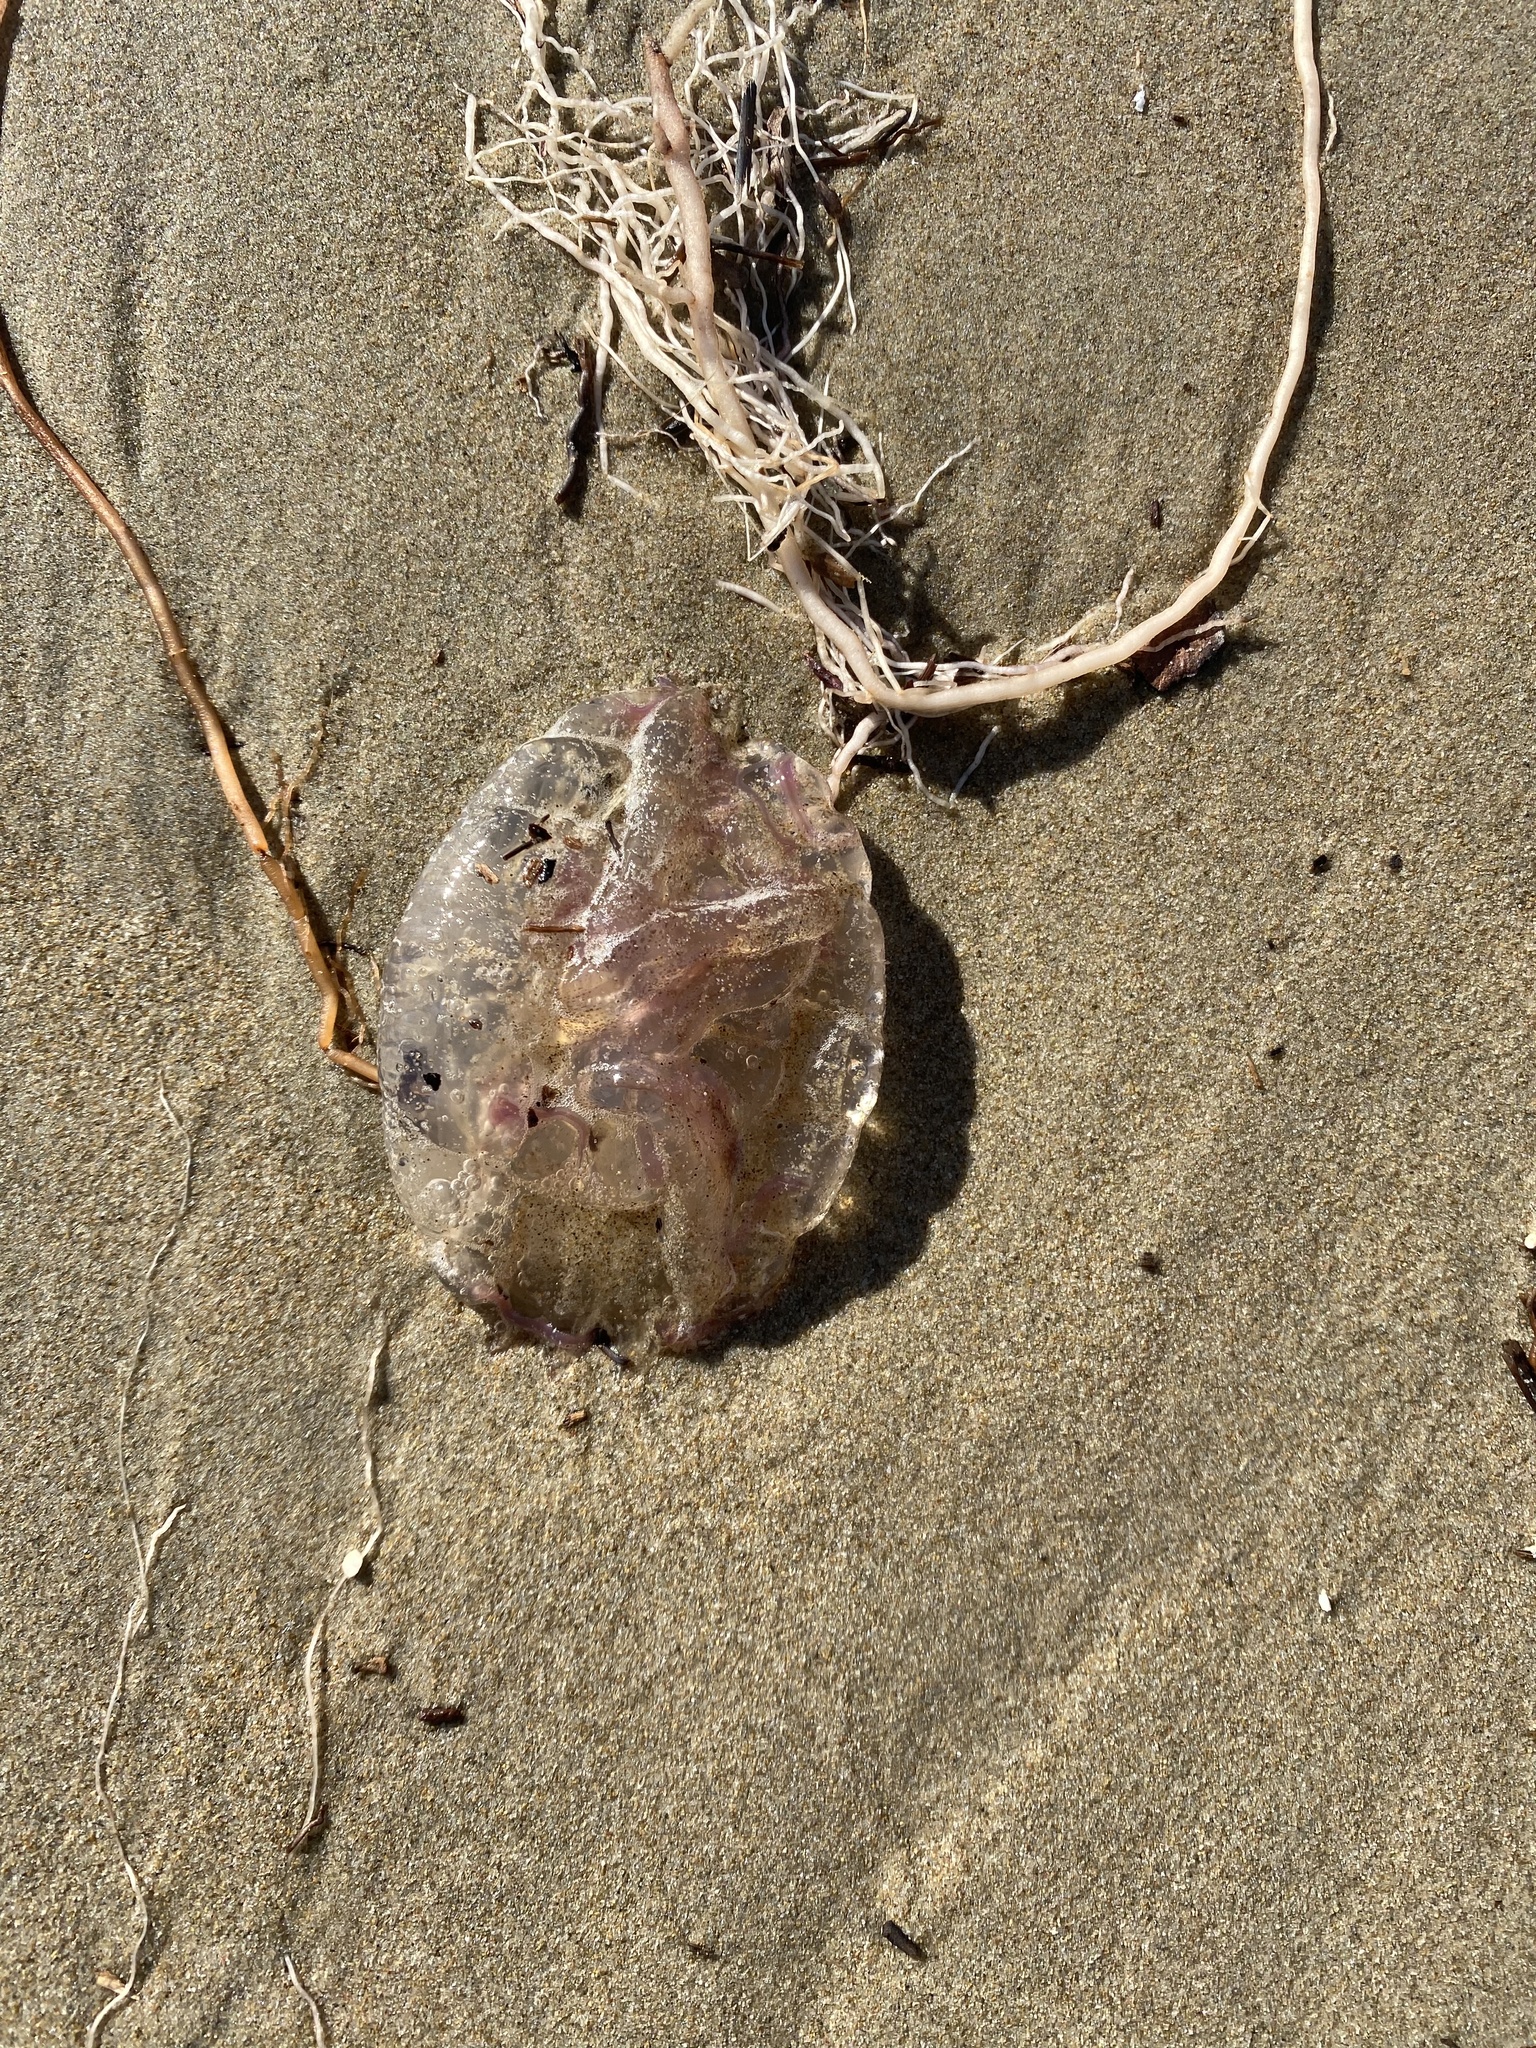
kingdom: Animalia
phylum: Cnidaria
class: Scyphozoa
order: Semaeostomeae
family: Pelagiidae
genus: Pelagia
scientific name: Pelagia noctiluca
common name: Mauve stinger
